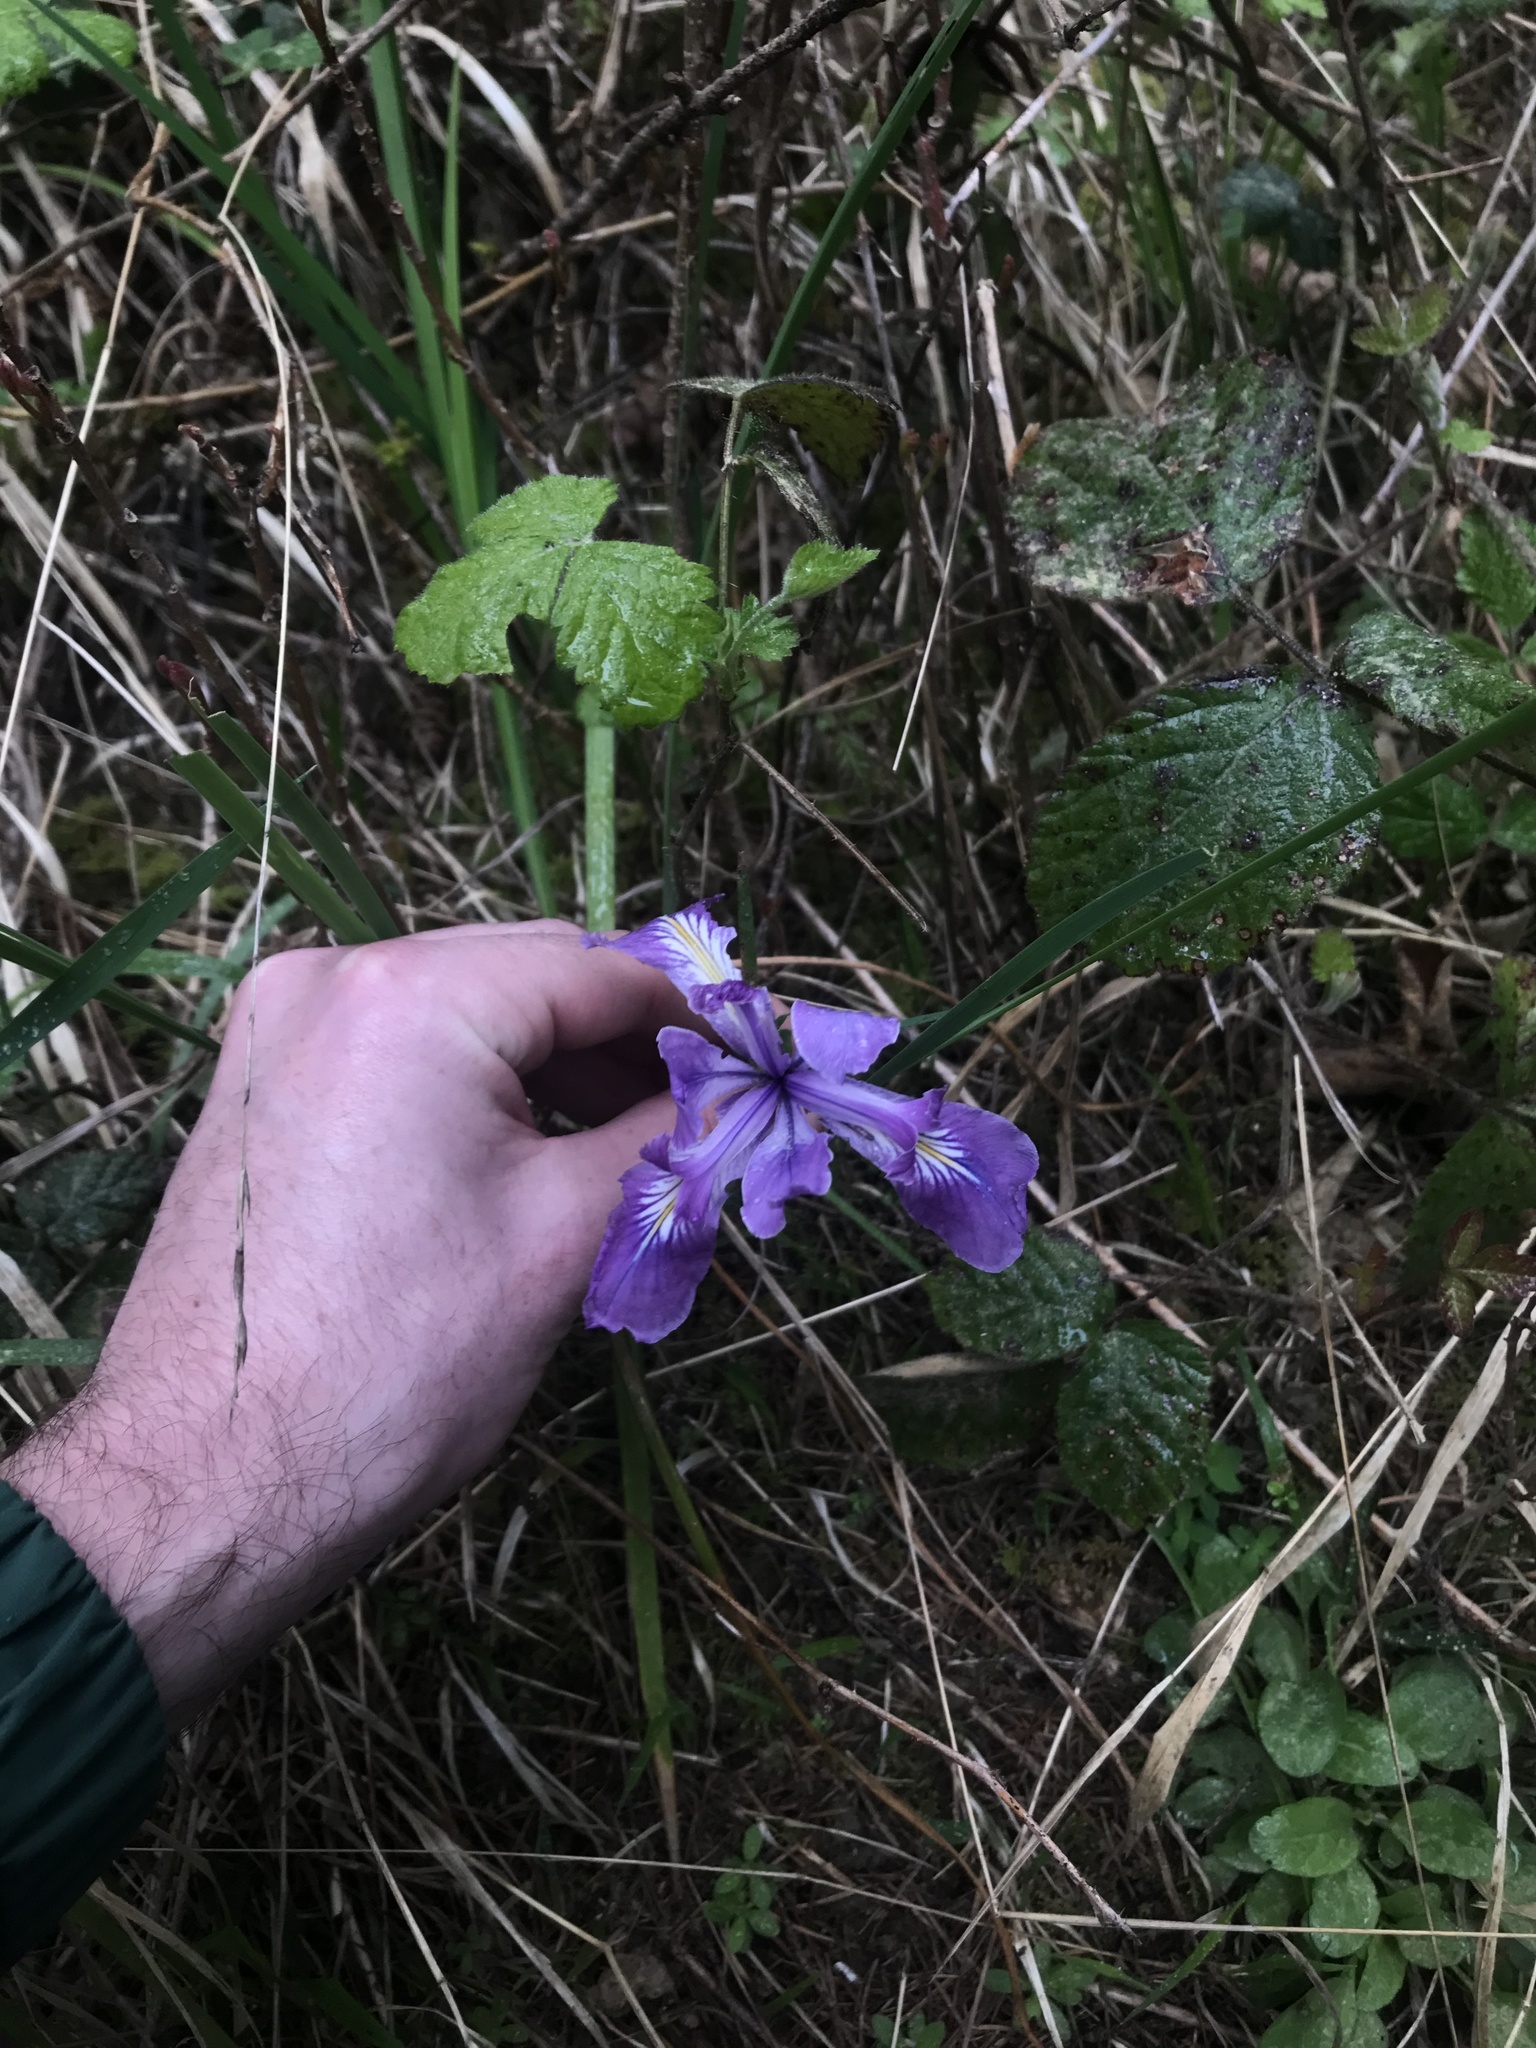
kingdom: Plantae
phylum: Tracheophyta
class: Liliopsida
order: Asparagales
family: Iridaceae
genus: Iris
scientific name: Iris tenax
